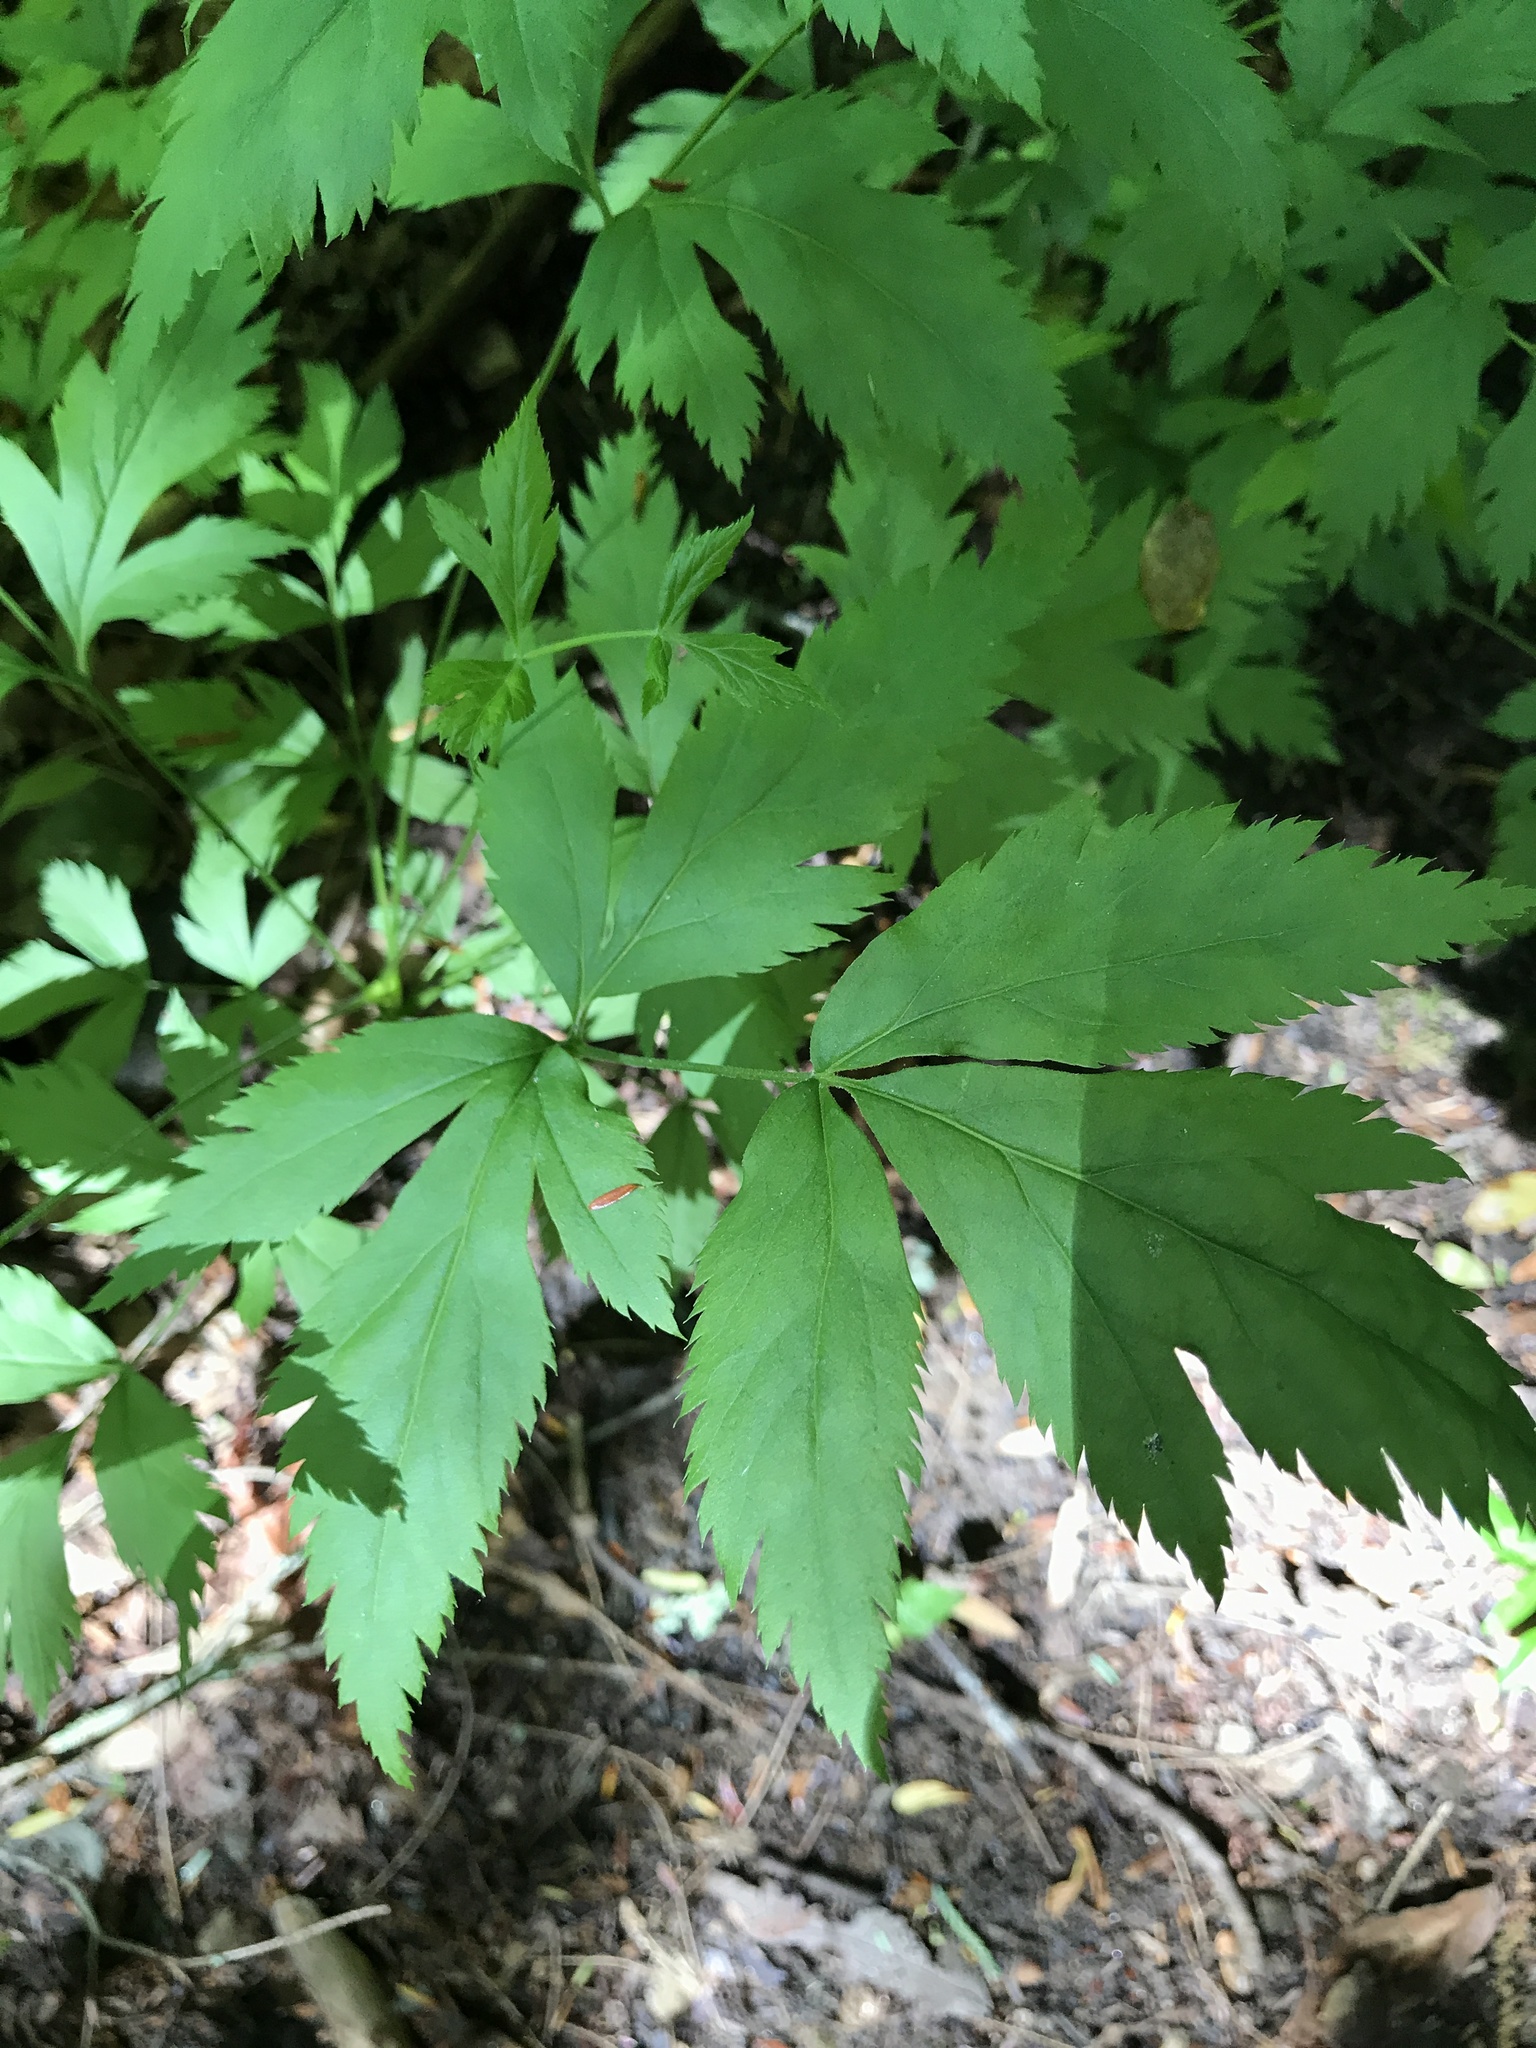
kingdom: Plantae
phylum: Tracheophyta
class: Magnoliopsida
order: Ranunculales
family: Ranunculaceae
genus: Xanthorhiza
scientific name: Xanthorhiza simplicissima
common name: Yellowroot
